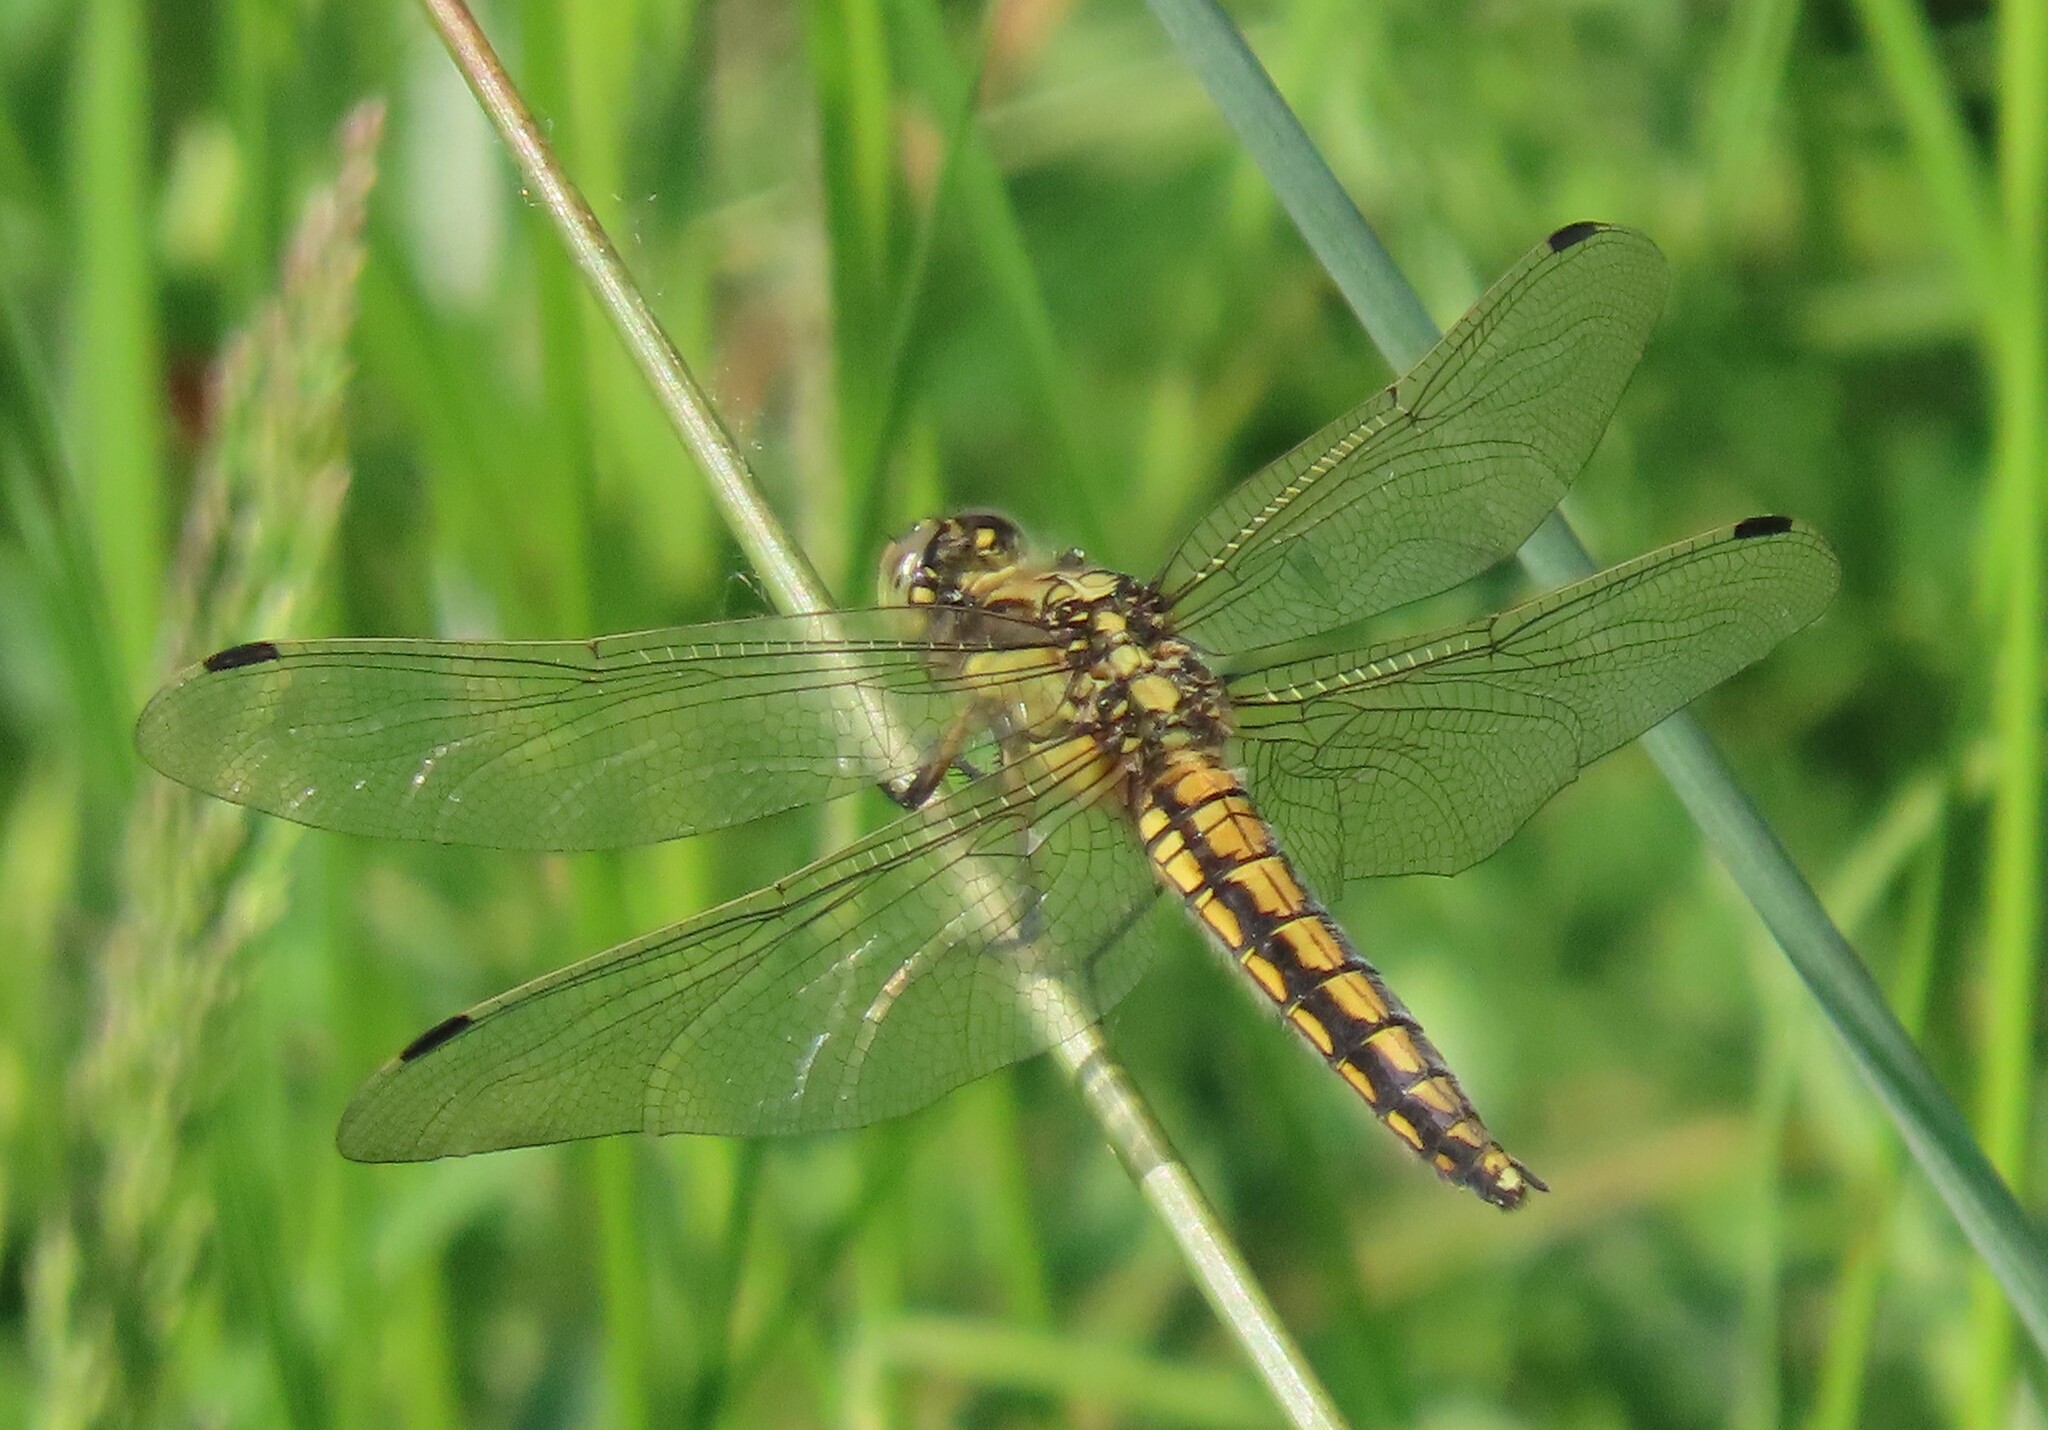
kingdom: Animalia
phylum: Arthropoda
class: Insecta
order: Odonata
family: Libellulidae
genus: Orthetrum
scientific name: Orthetrum cancellatum
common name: Black-tailed skimmer
